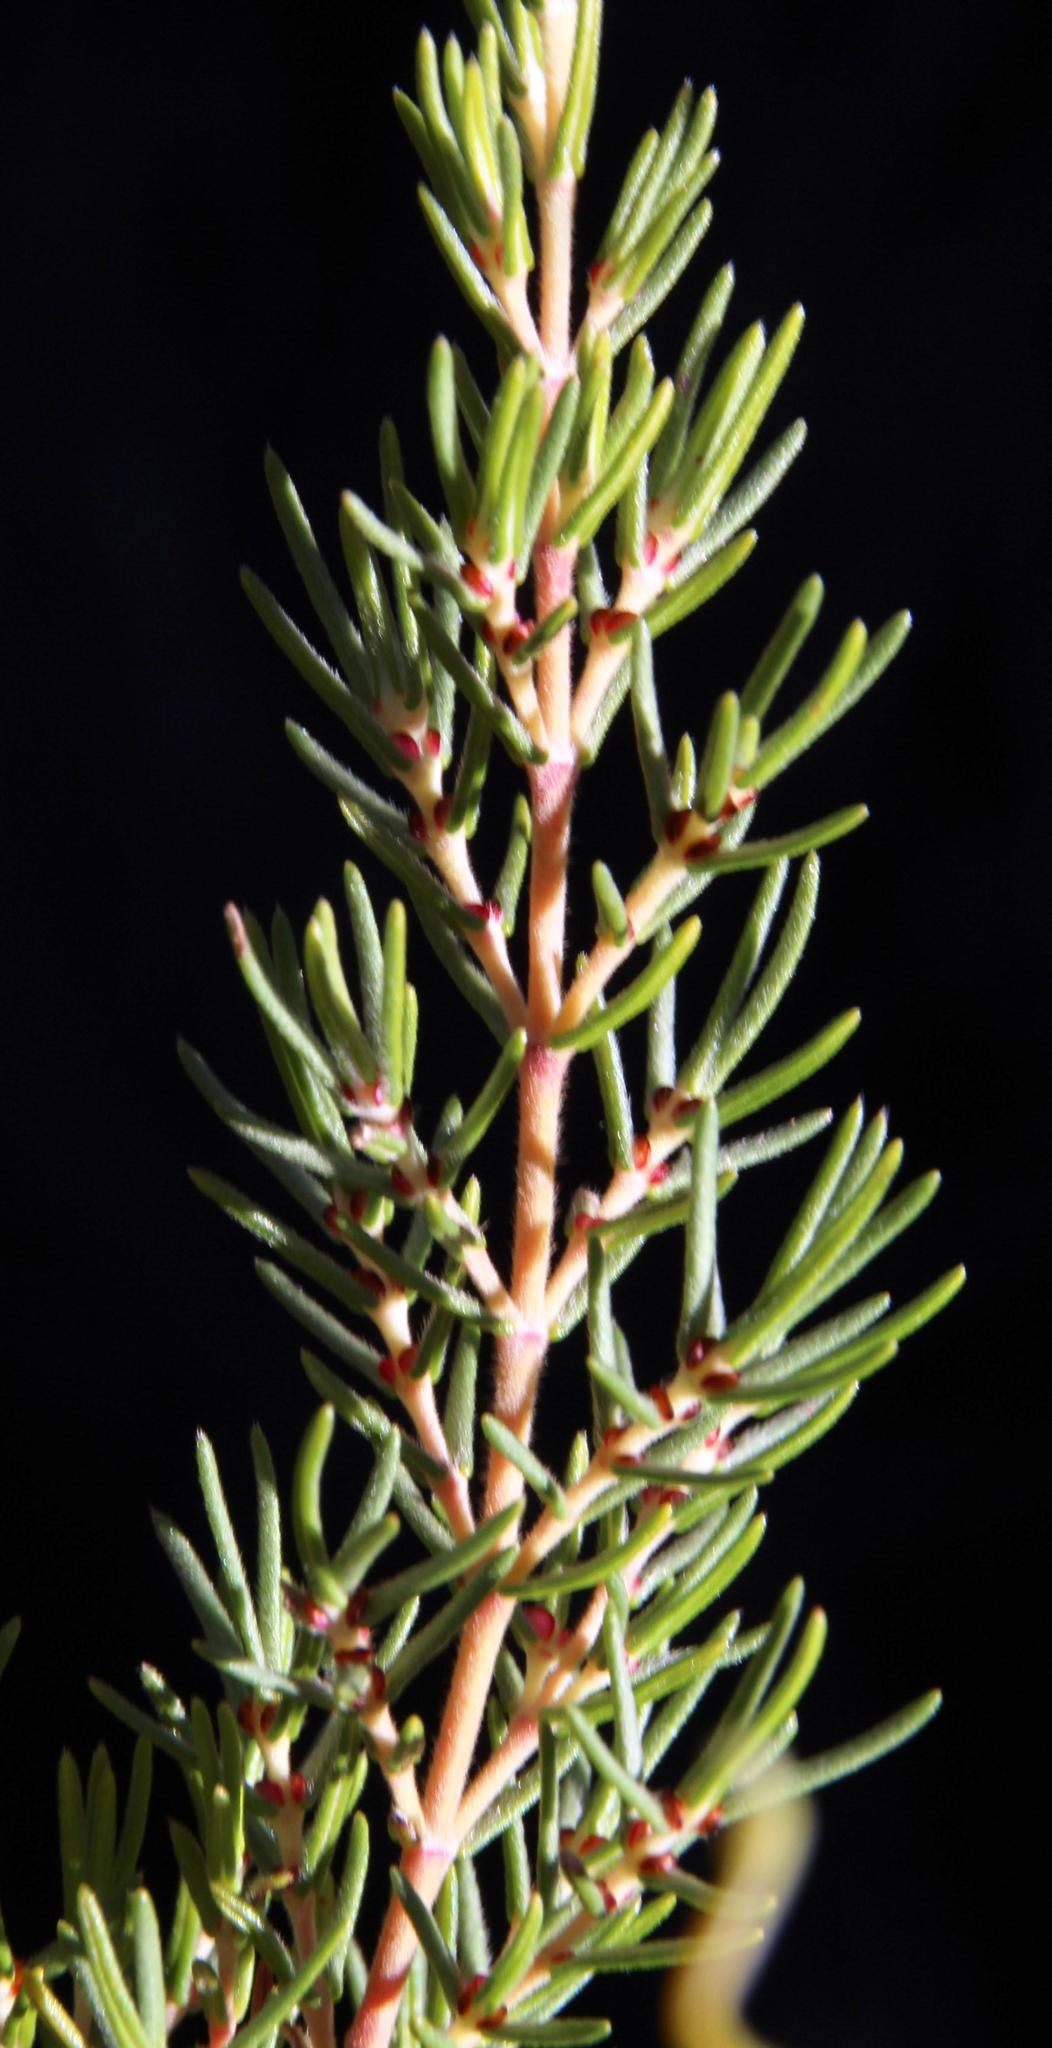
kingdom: Plantae
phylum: Tracheophyta
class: Magnoliopsida
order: Cornales
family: Grubbiaceae
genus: Grubbia
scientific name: Grubbia rosmarinifolia
